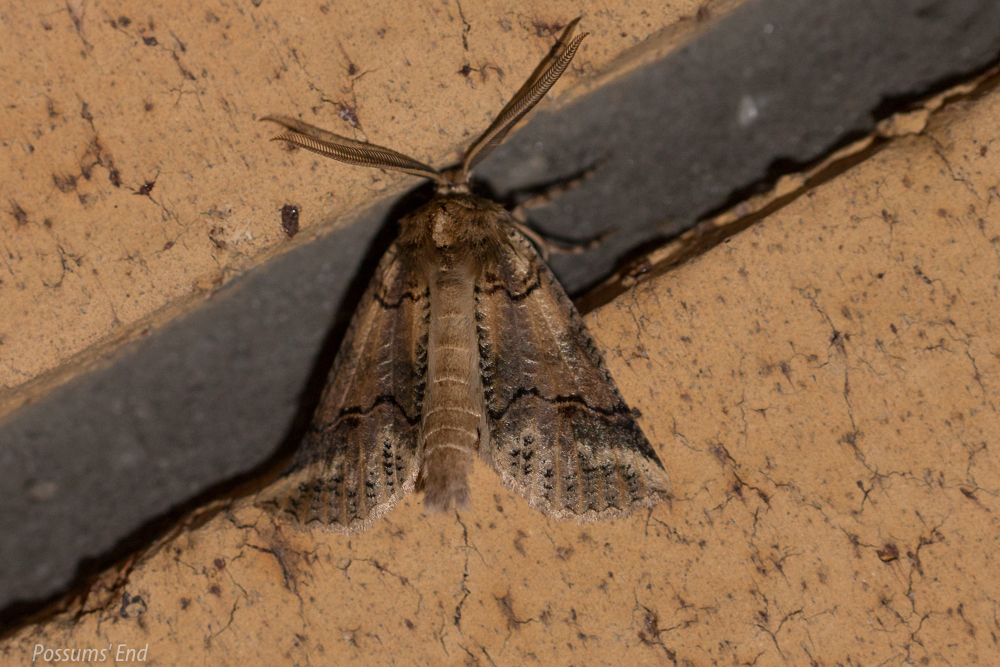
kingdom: Animalia
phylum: Arthropoda
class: Insecta
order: Lepidoptera
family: Geometridae
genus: Declana
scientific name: Declana
